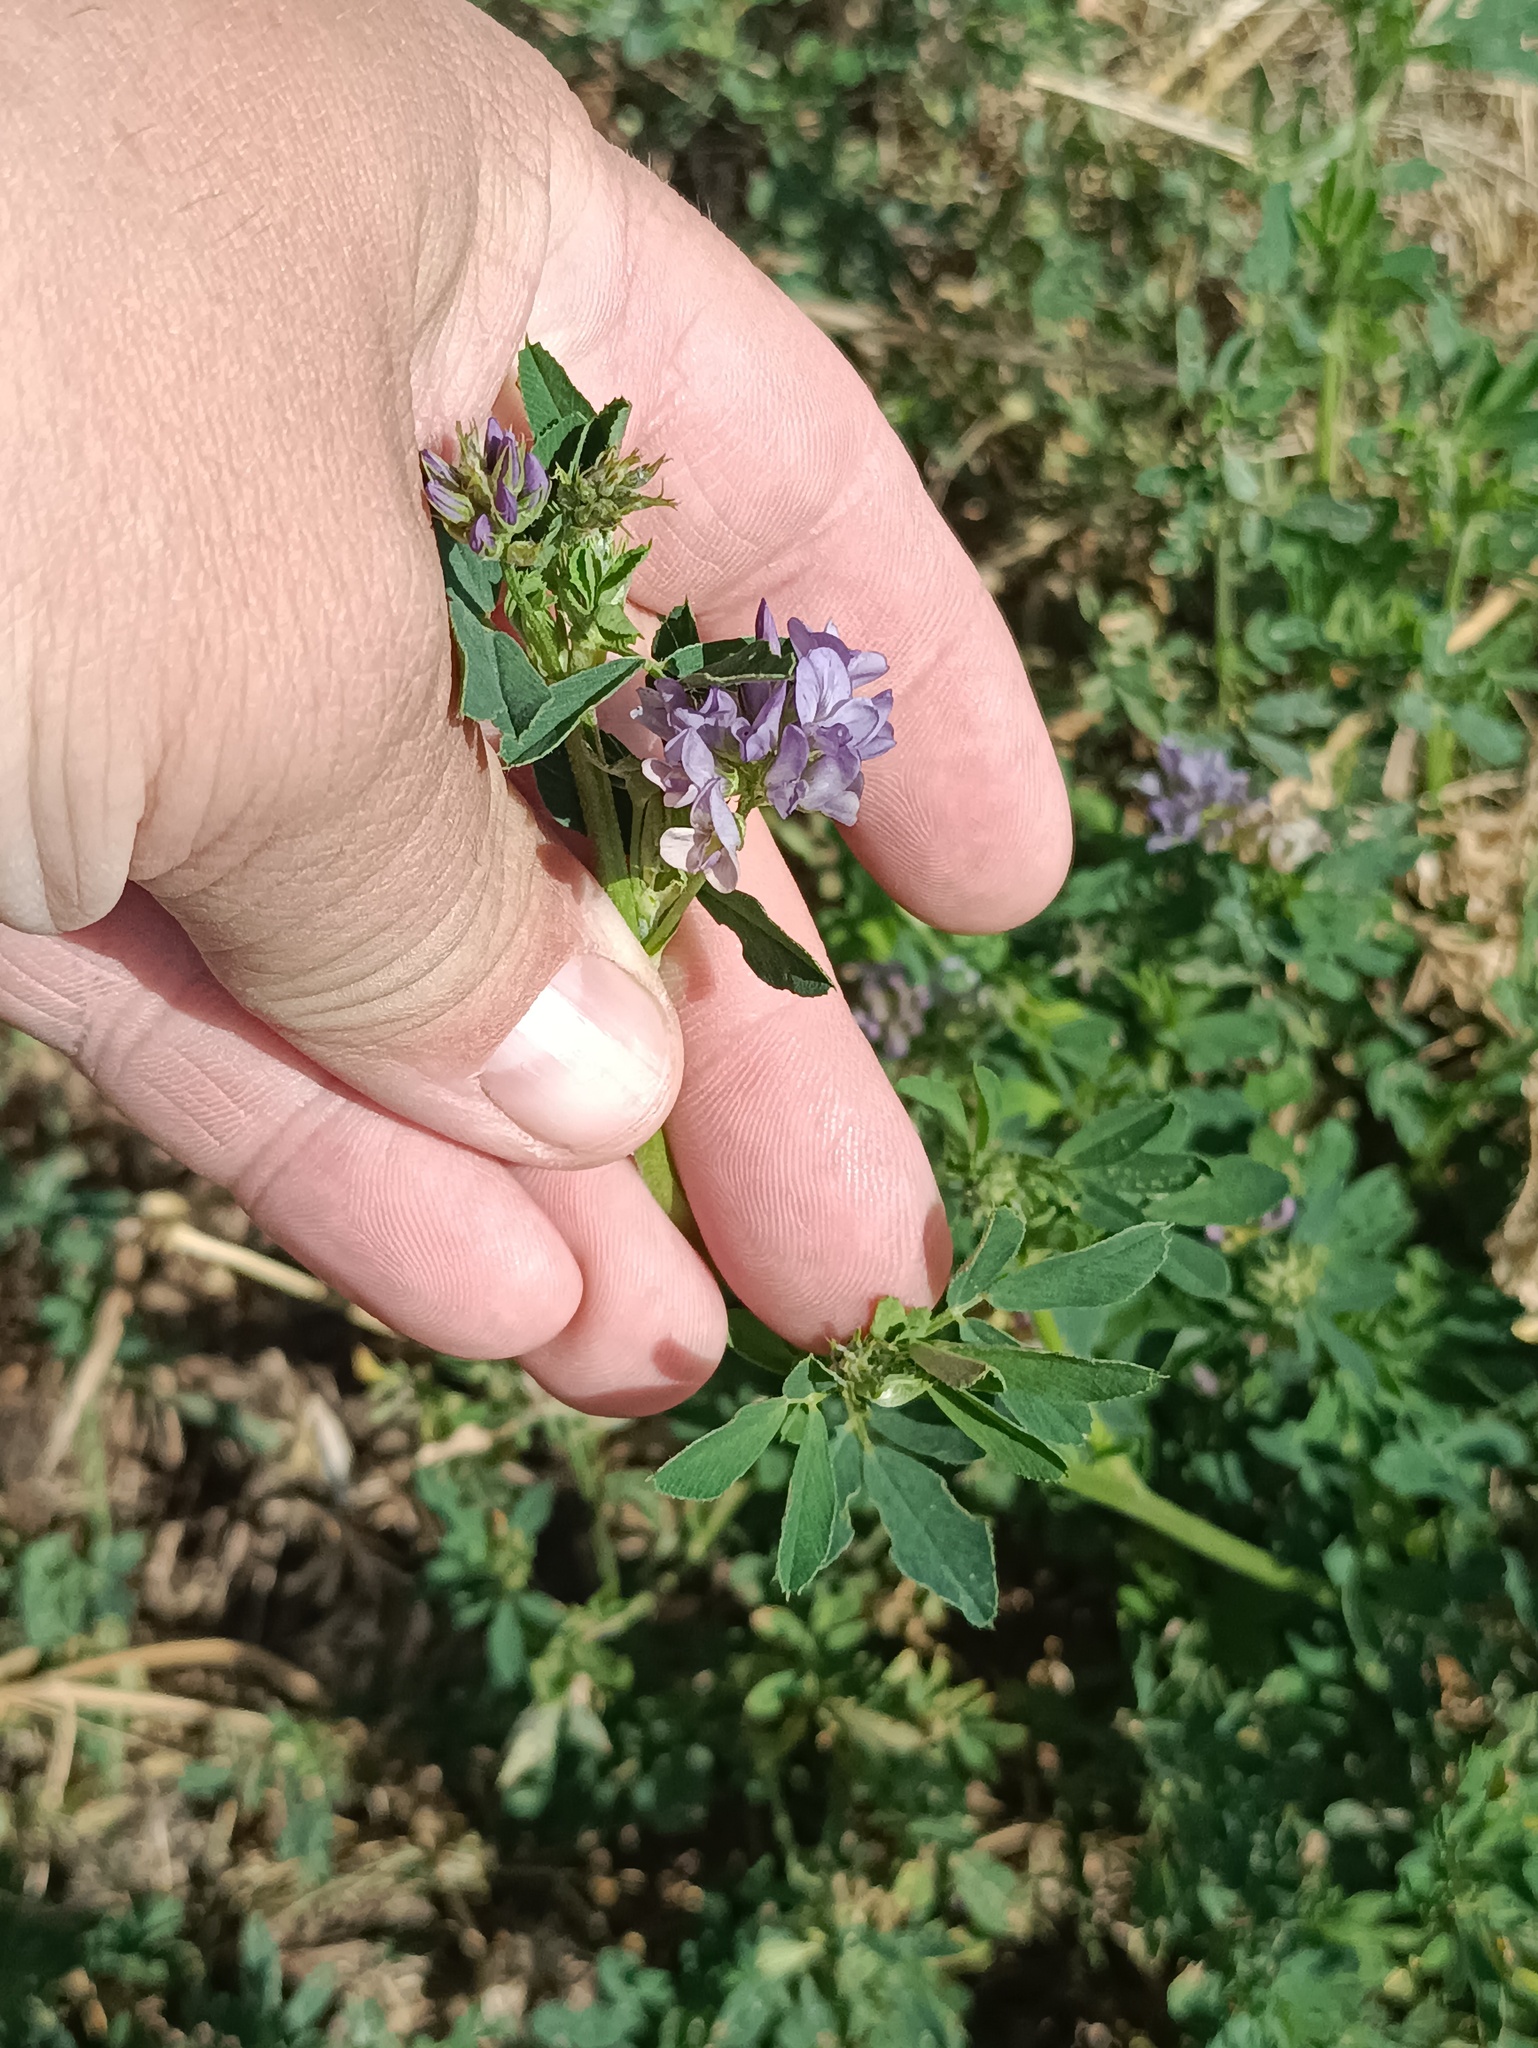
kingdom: Plantae
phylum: Tracheophyta
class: Magnoliopsida
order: Fabales
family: Fabaceae
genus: Medicago
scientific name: Medicago sativa
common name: Alfalfa
